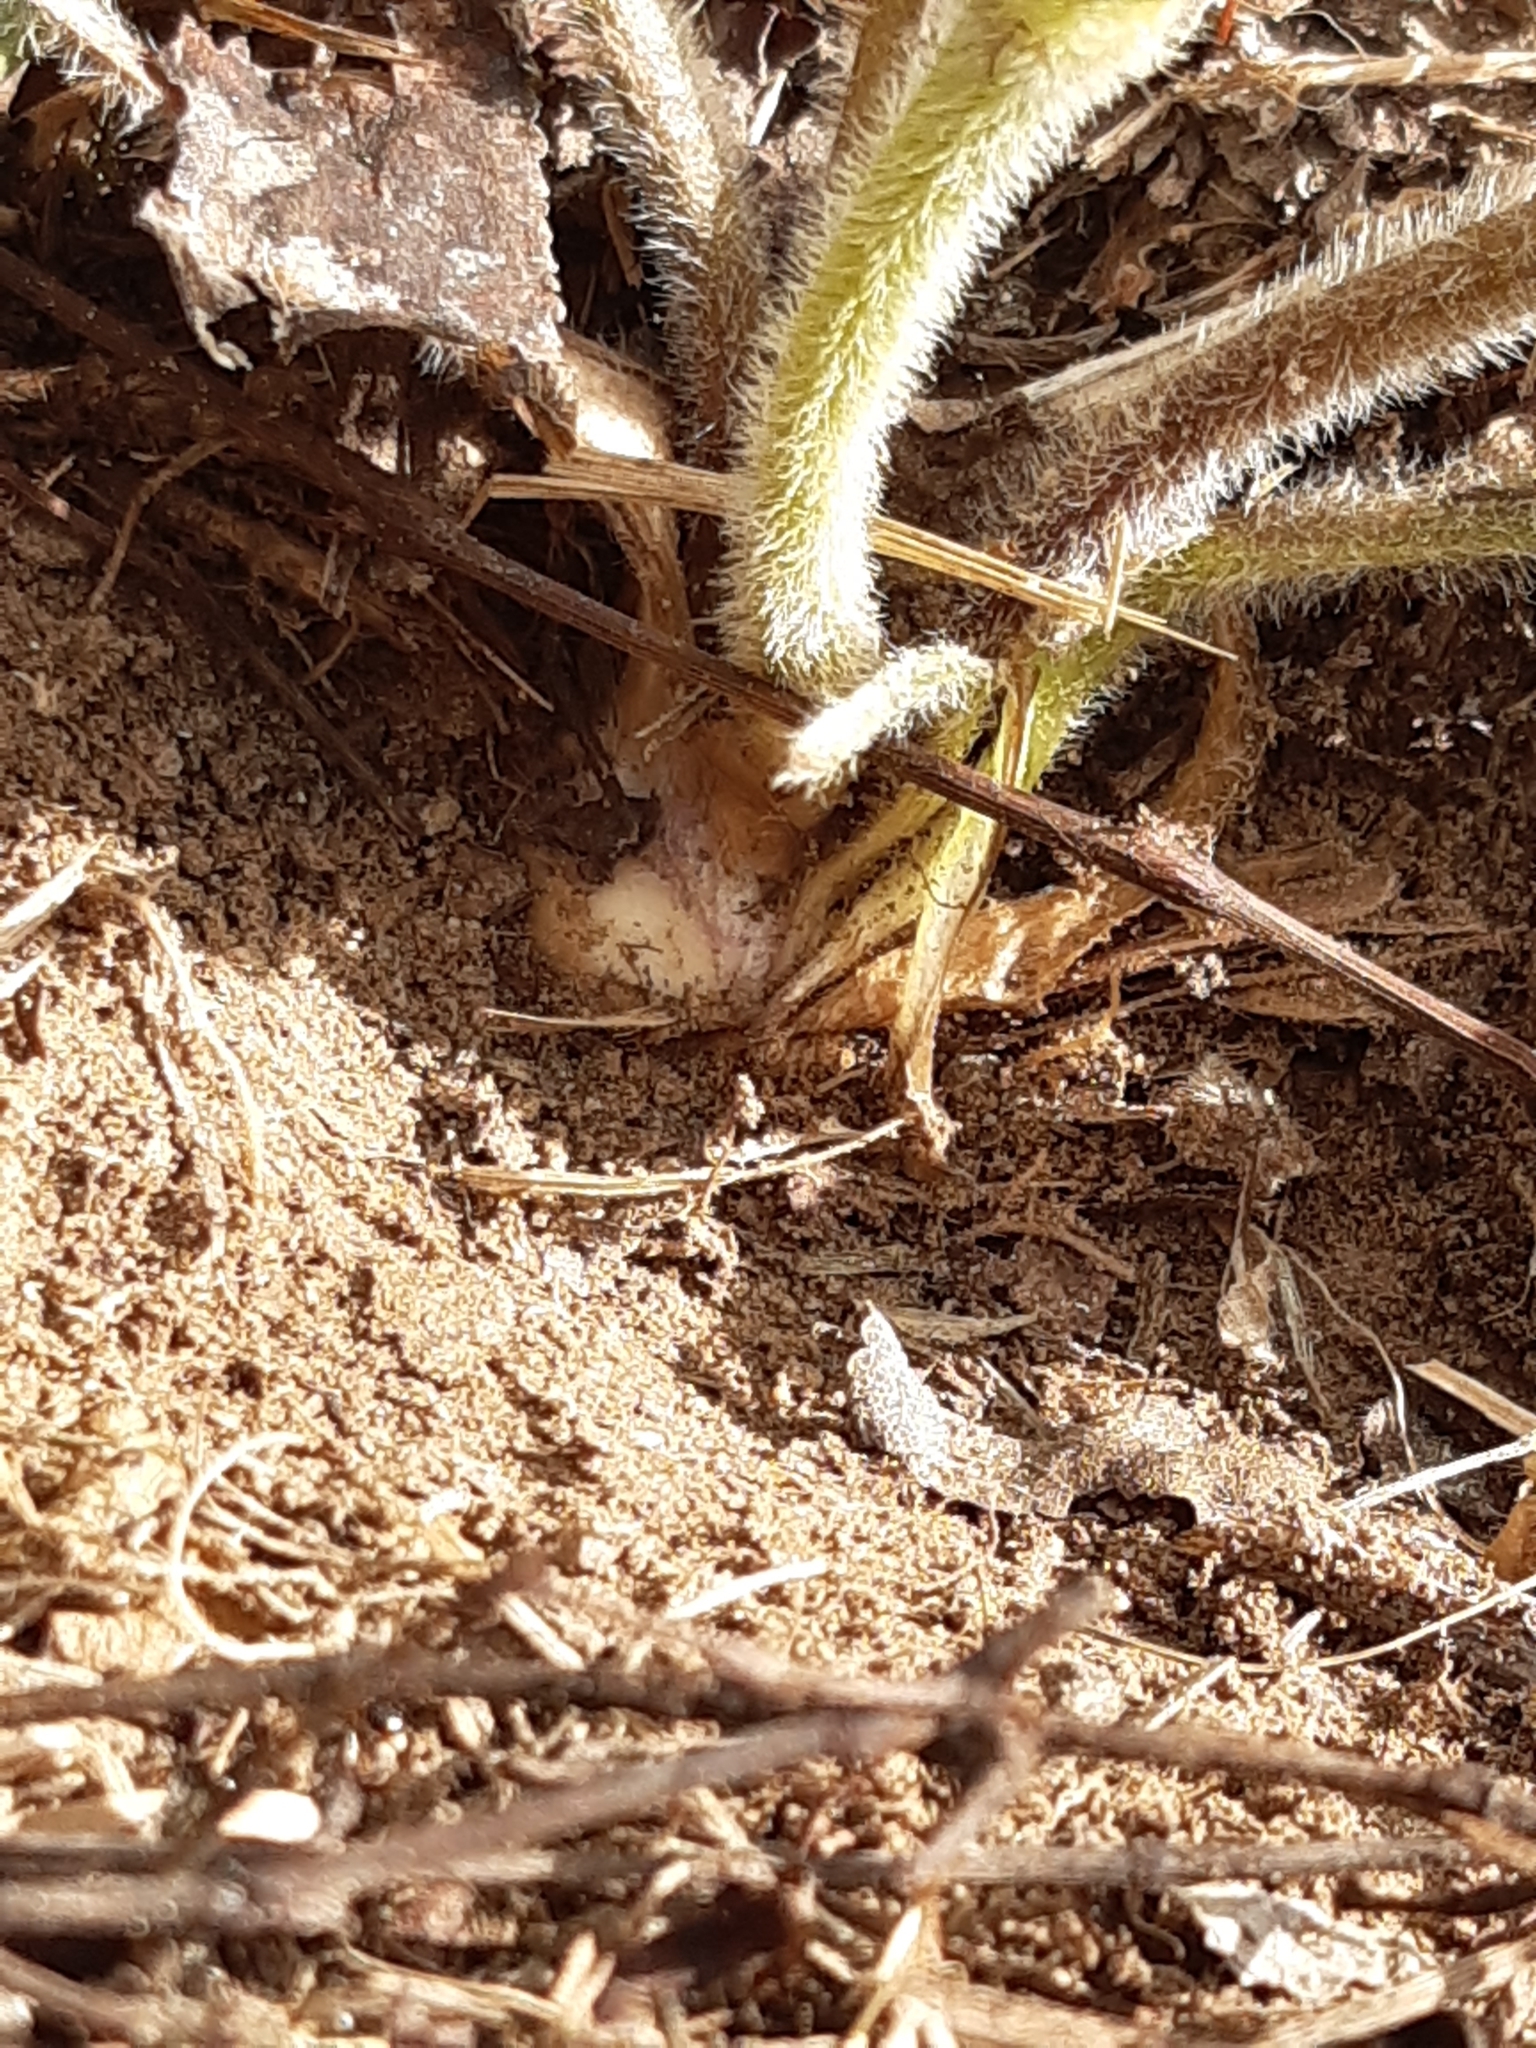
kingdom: Plantae
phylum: Tracheophyta
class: Magnoliopsida
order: Ranunculales
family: Ranunculaceae
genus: Ranunculus
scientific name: Ranunculus bulbosus
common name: Bulbous buttercup
